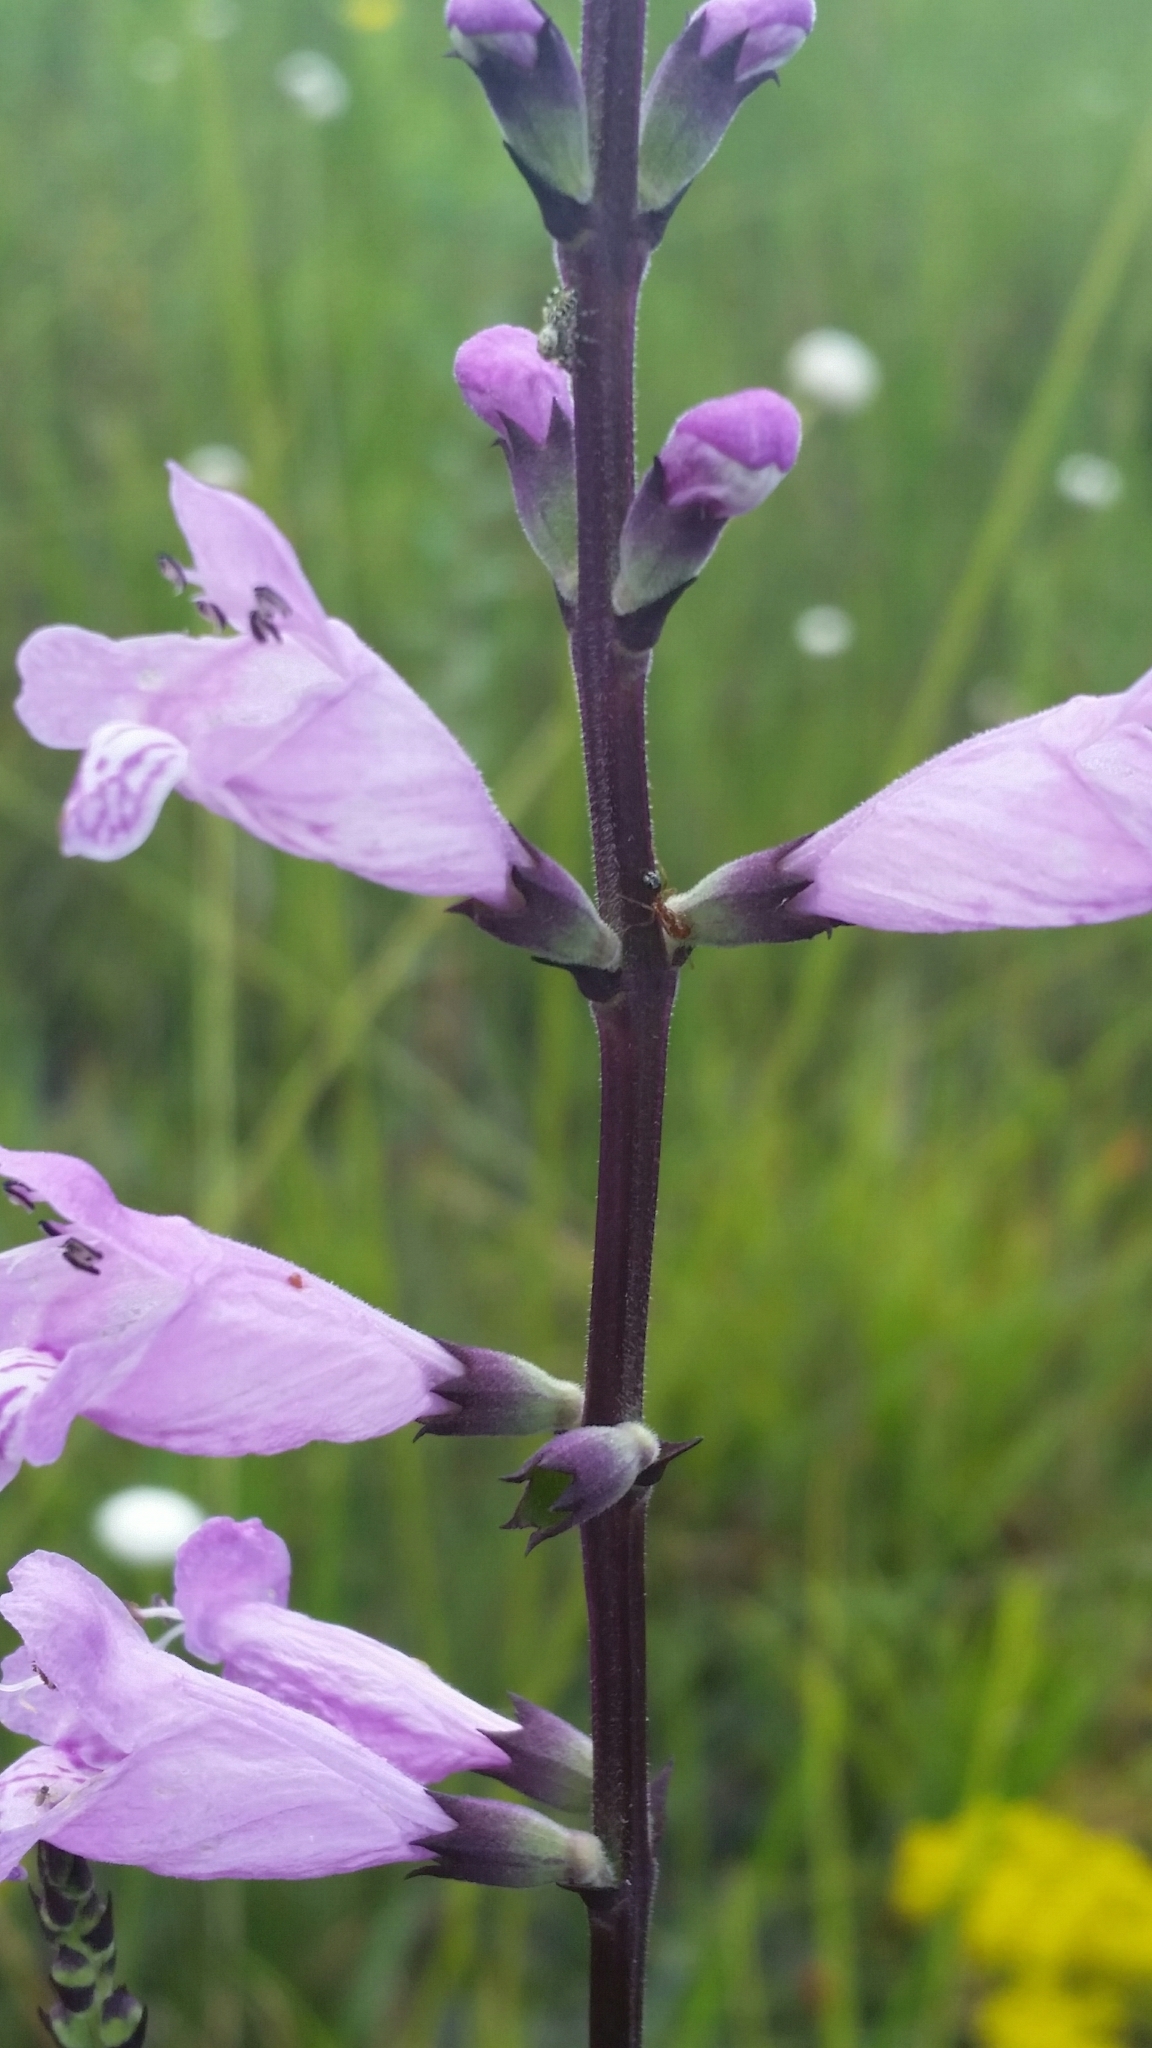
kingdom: Plantae
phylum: Tracheophyta
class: Magnoliopsida
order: Lamiales
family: Lamiaceae
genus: Physostegia
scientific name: Physostegia purpurea
